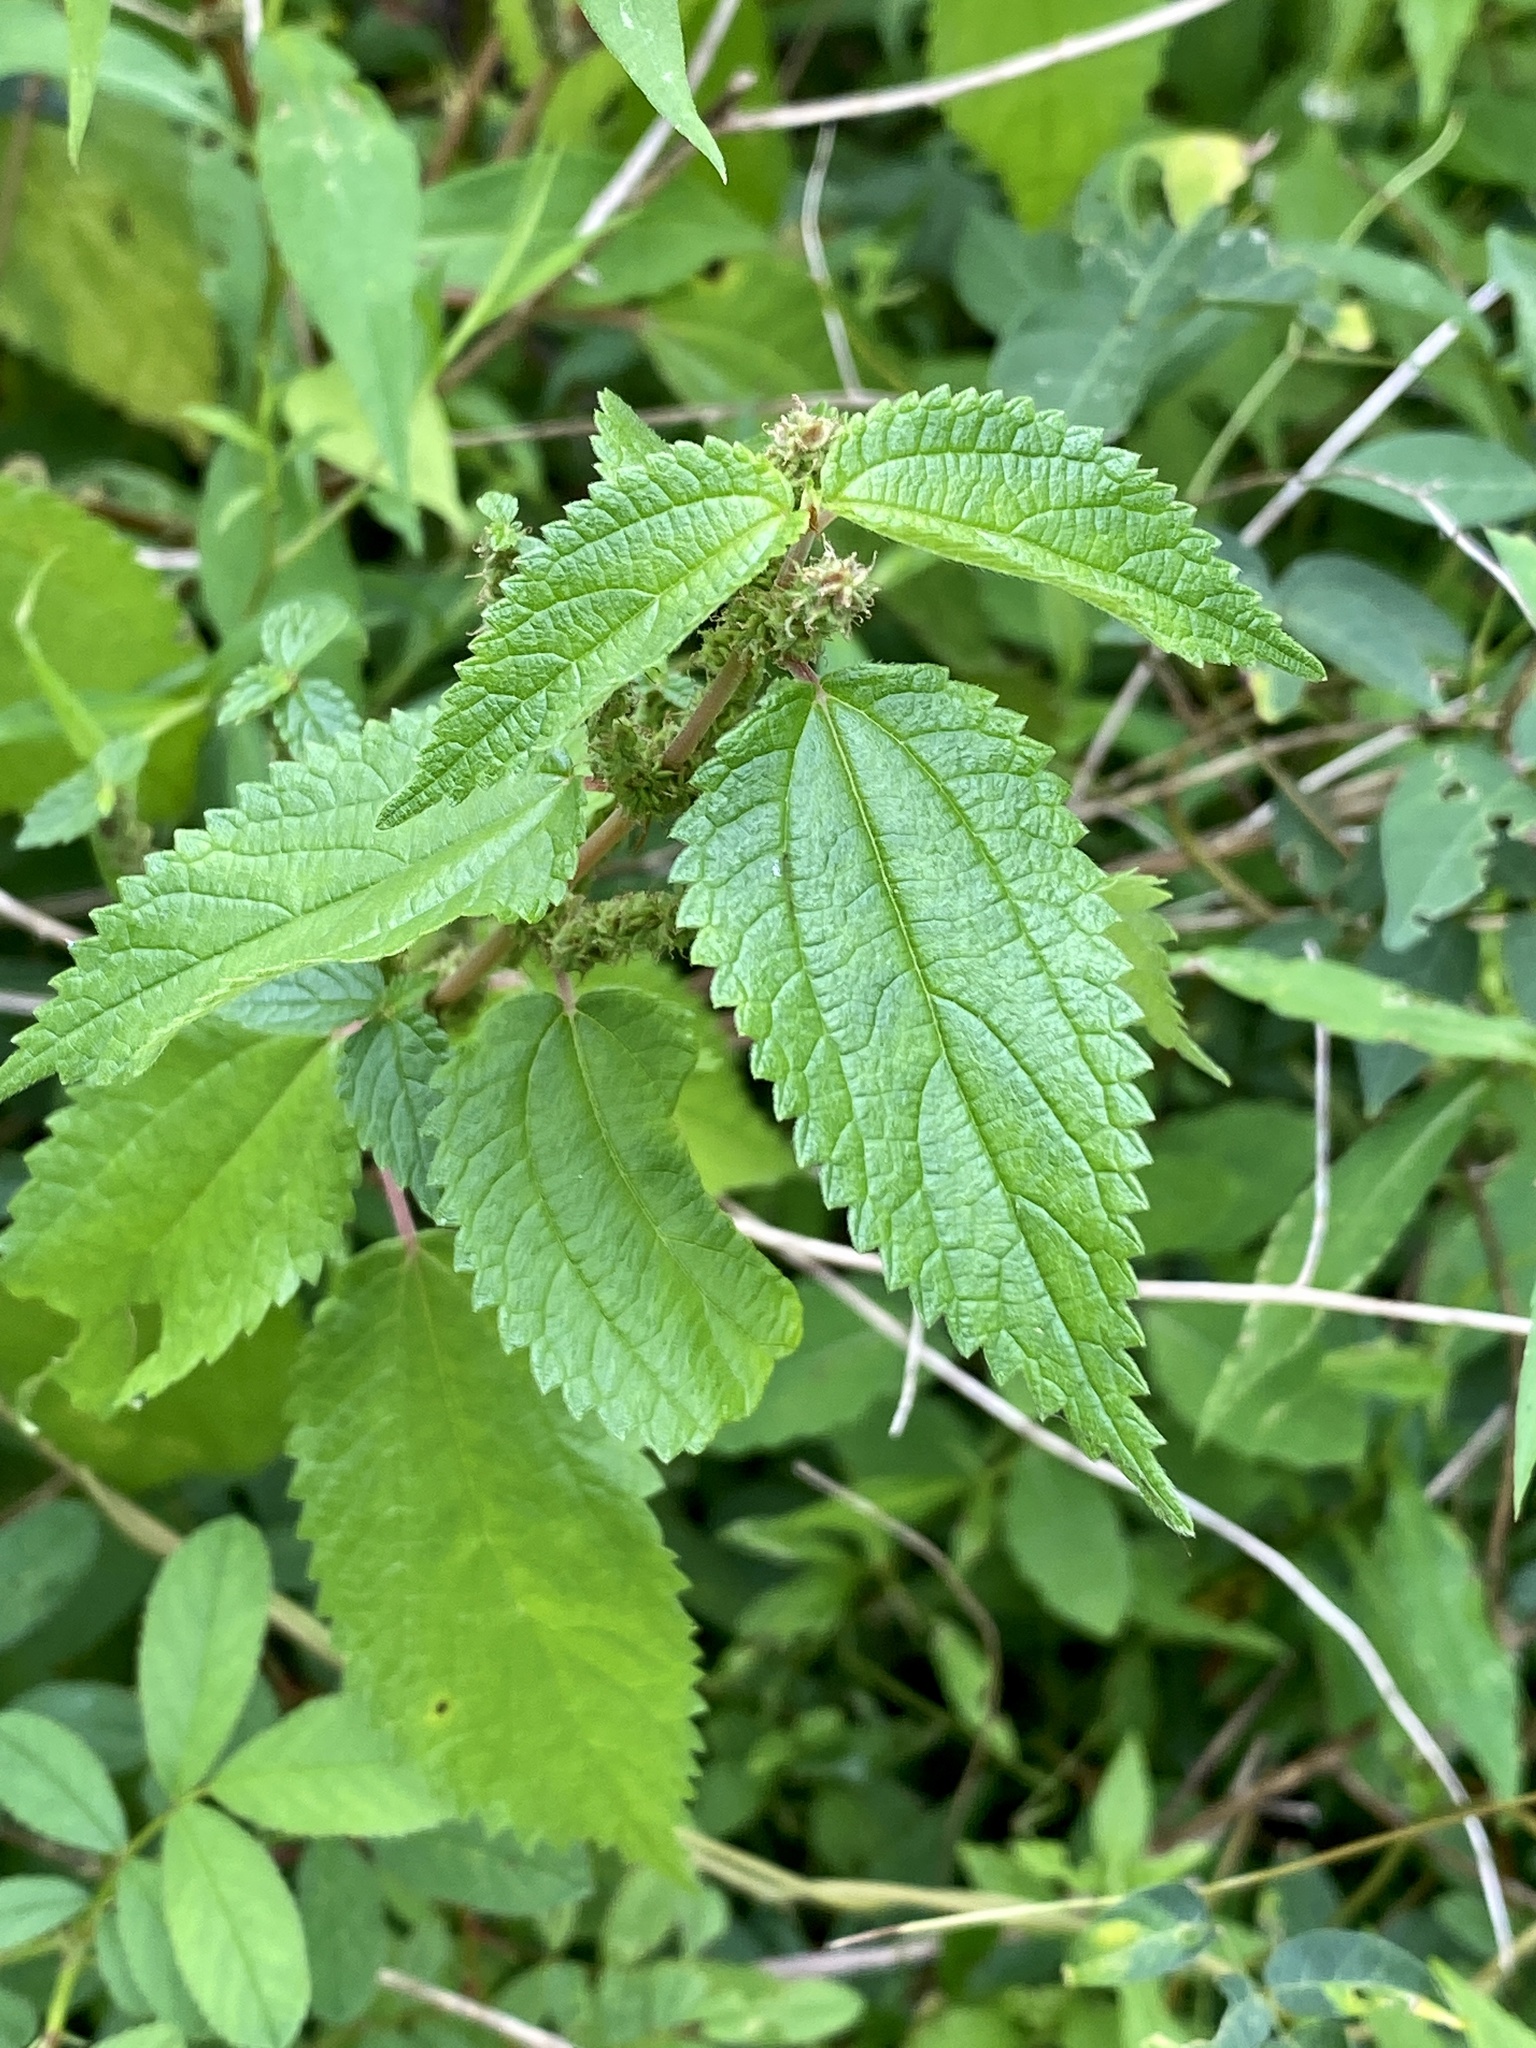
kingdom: Plantae
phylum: Tracheophyta
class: Magnoliopsida
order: Rosales
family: Urticaceae
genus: Boehmeria
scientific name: Boehmeria cylindrica
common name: Bog-hemp
